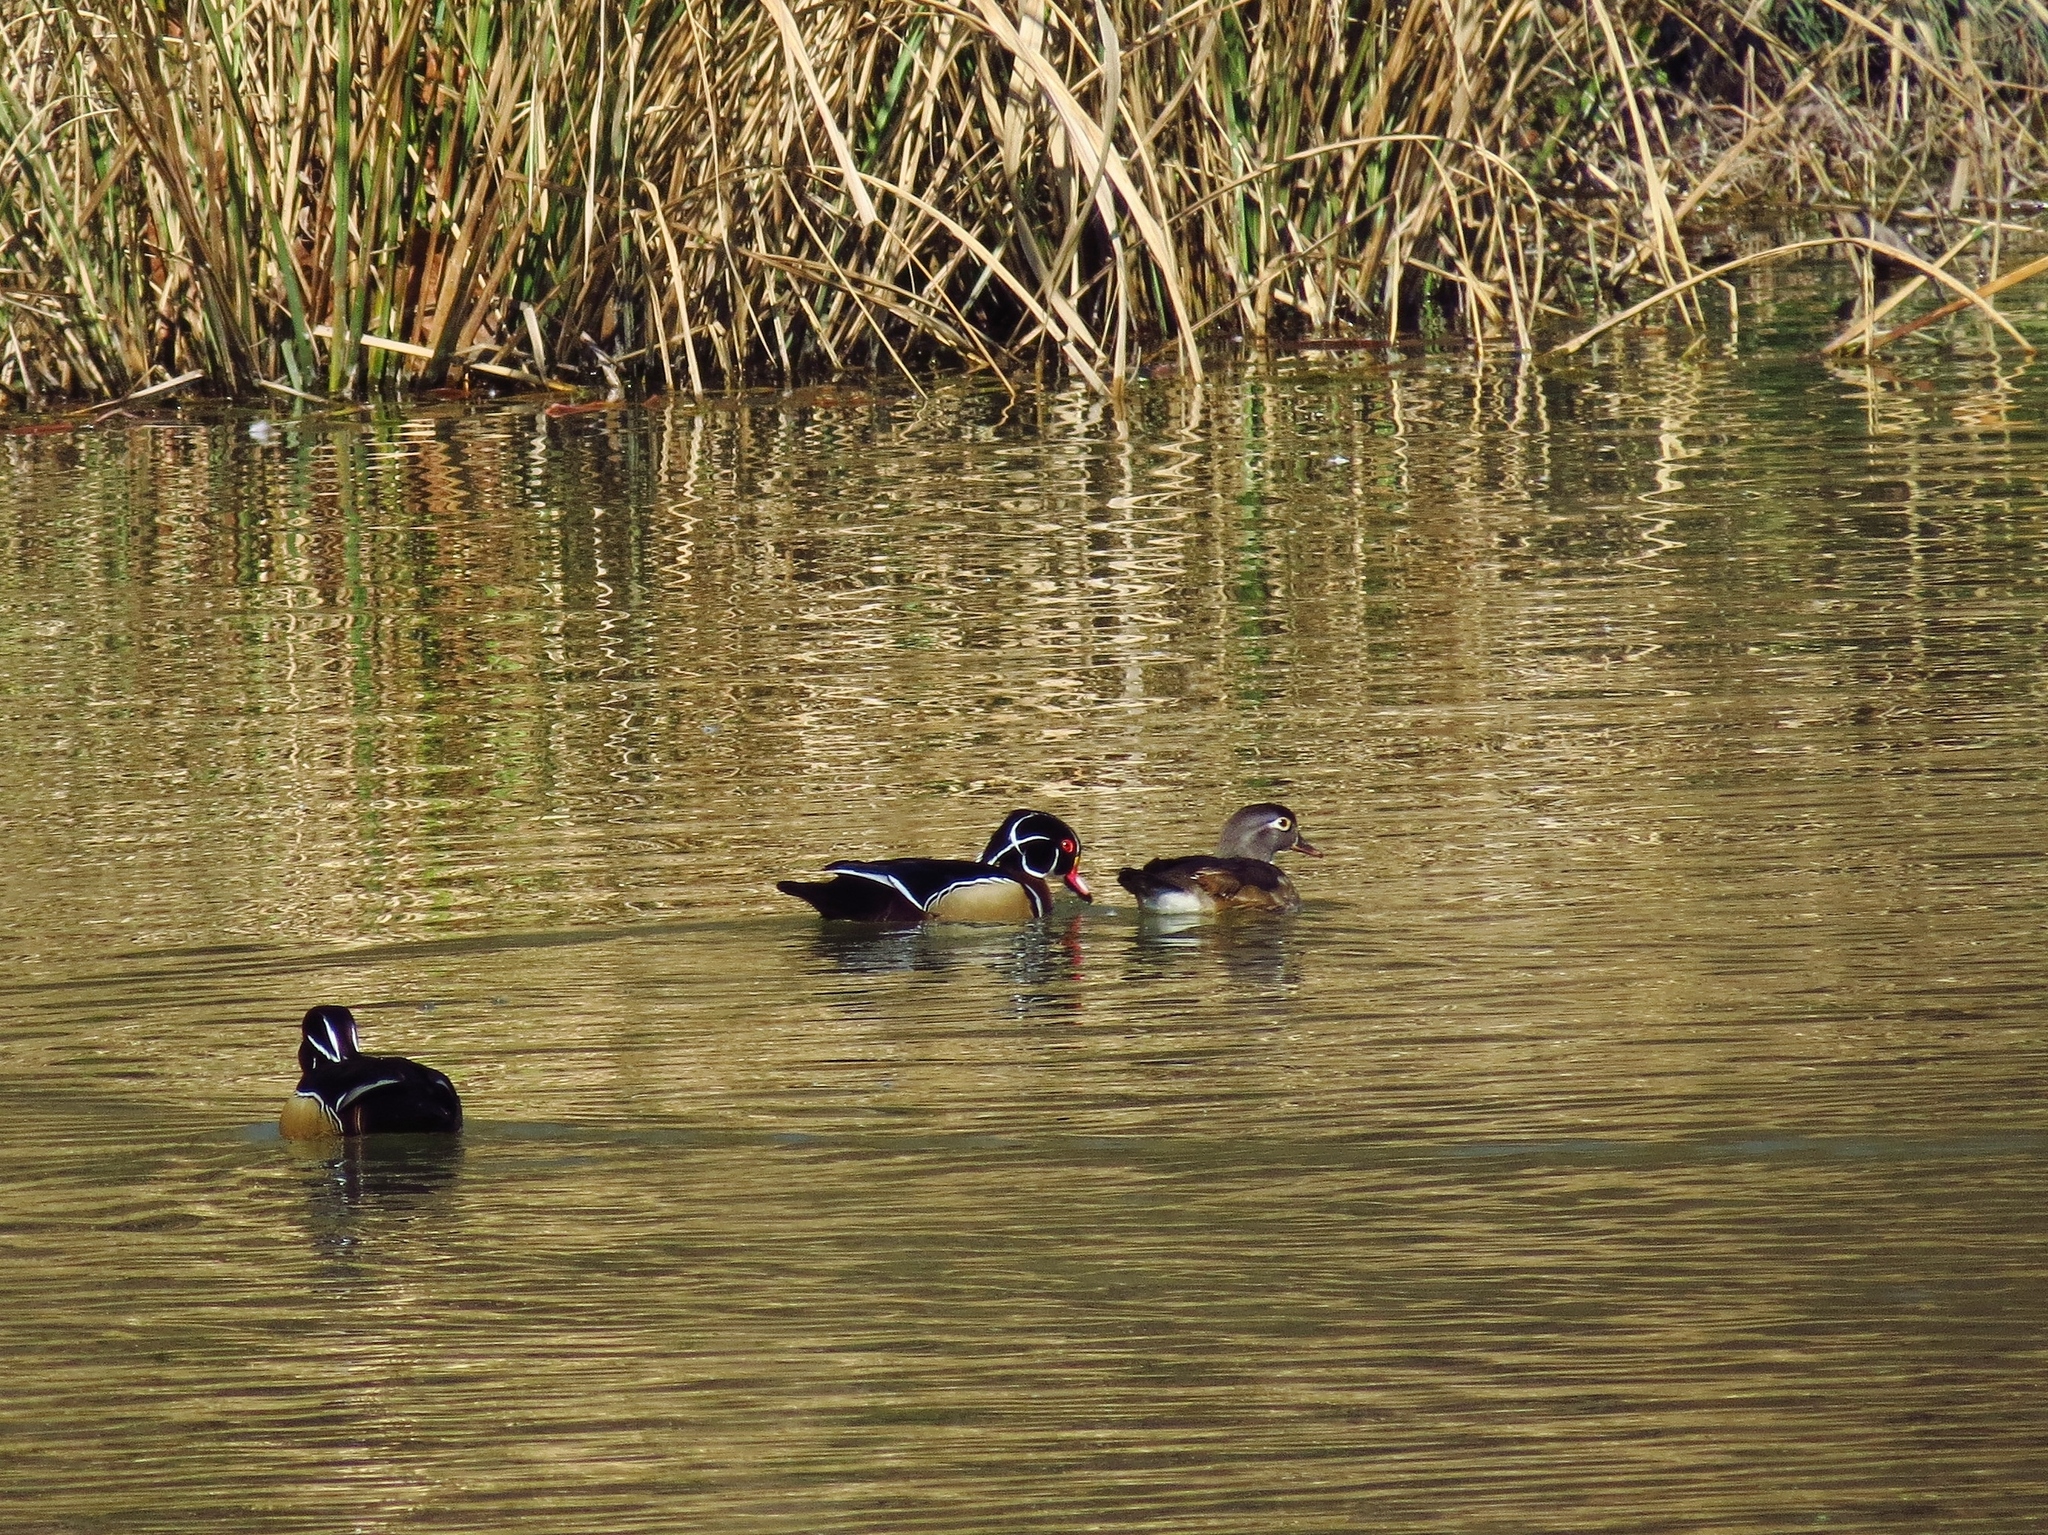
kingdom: Animalia
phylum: Chordata
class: Aves
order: Anseriformes
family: Anatidae
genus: Aix
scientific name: Aix sponsa
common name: Wood duck
